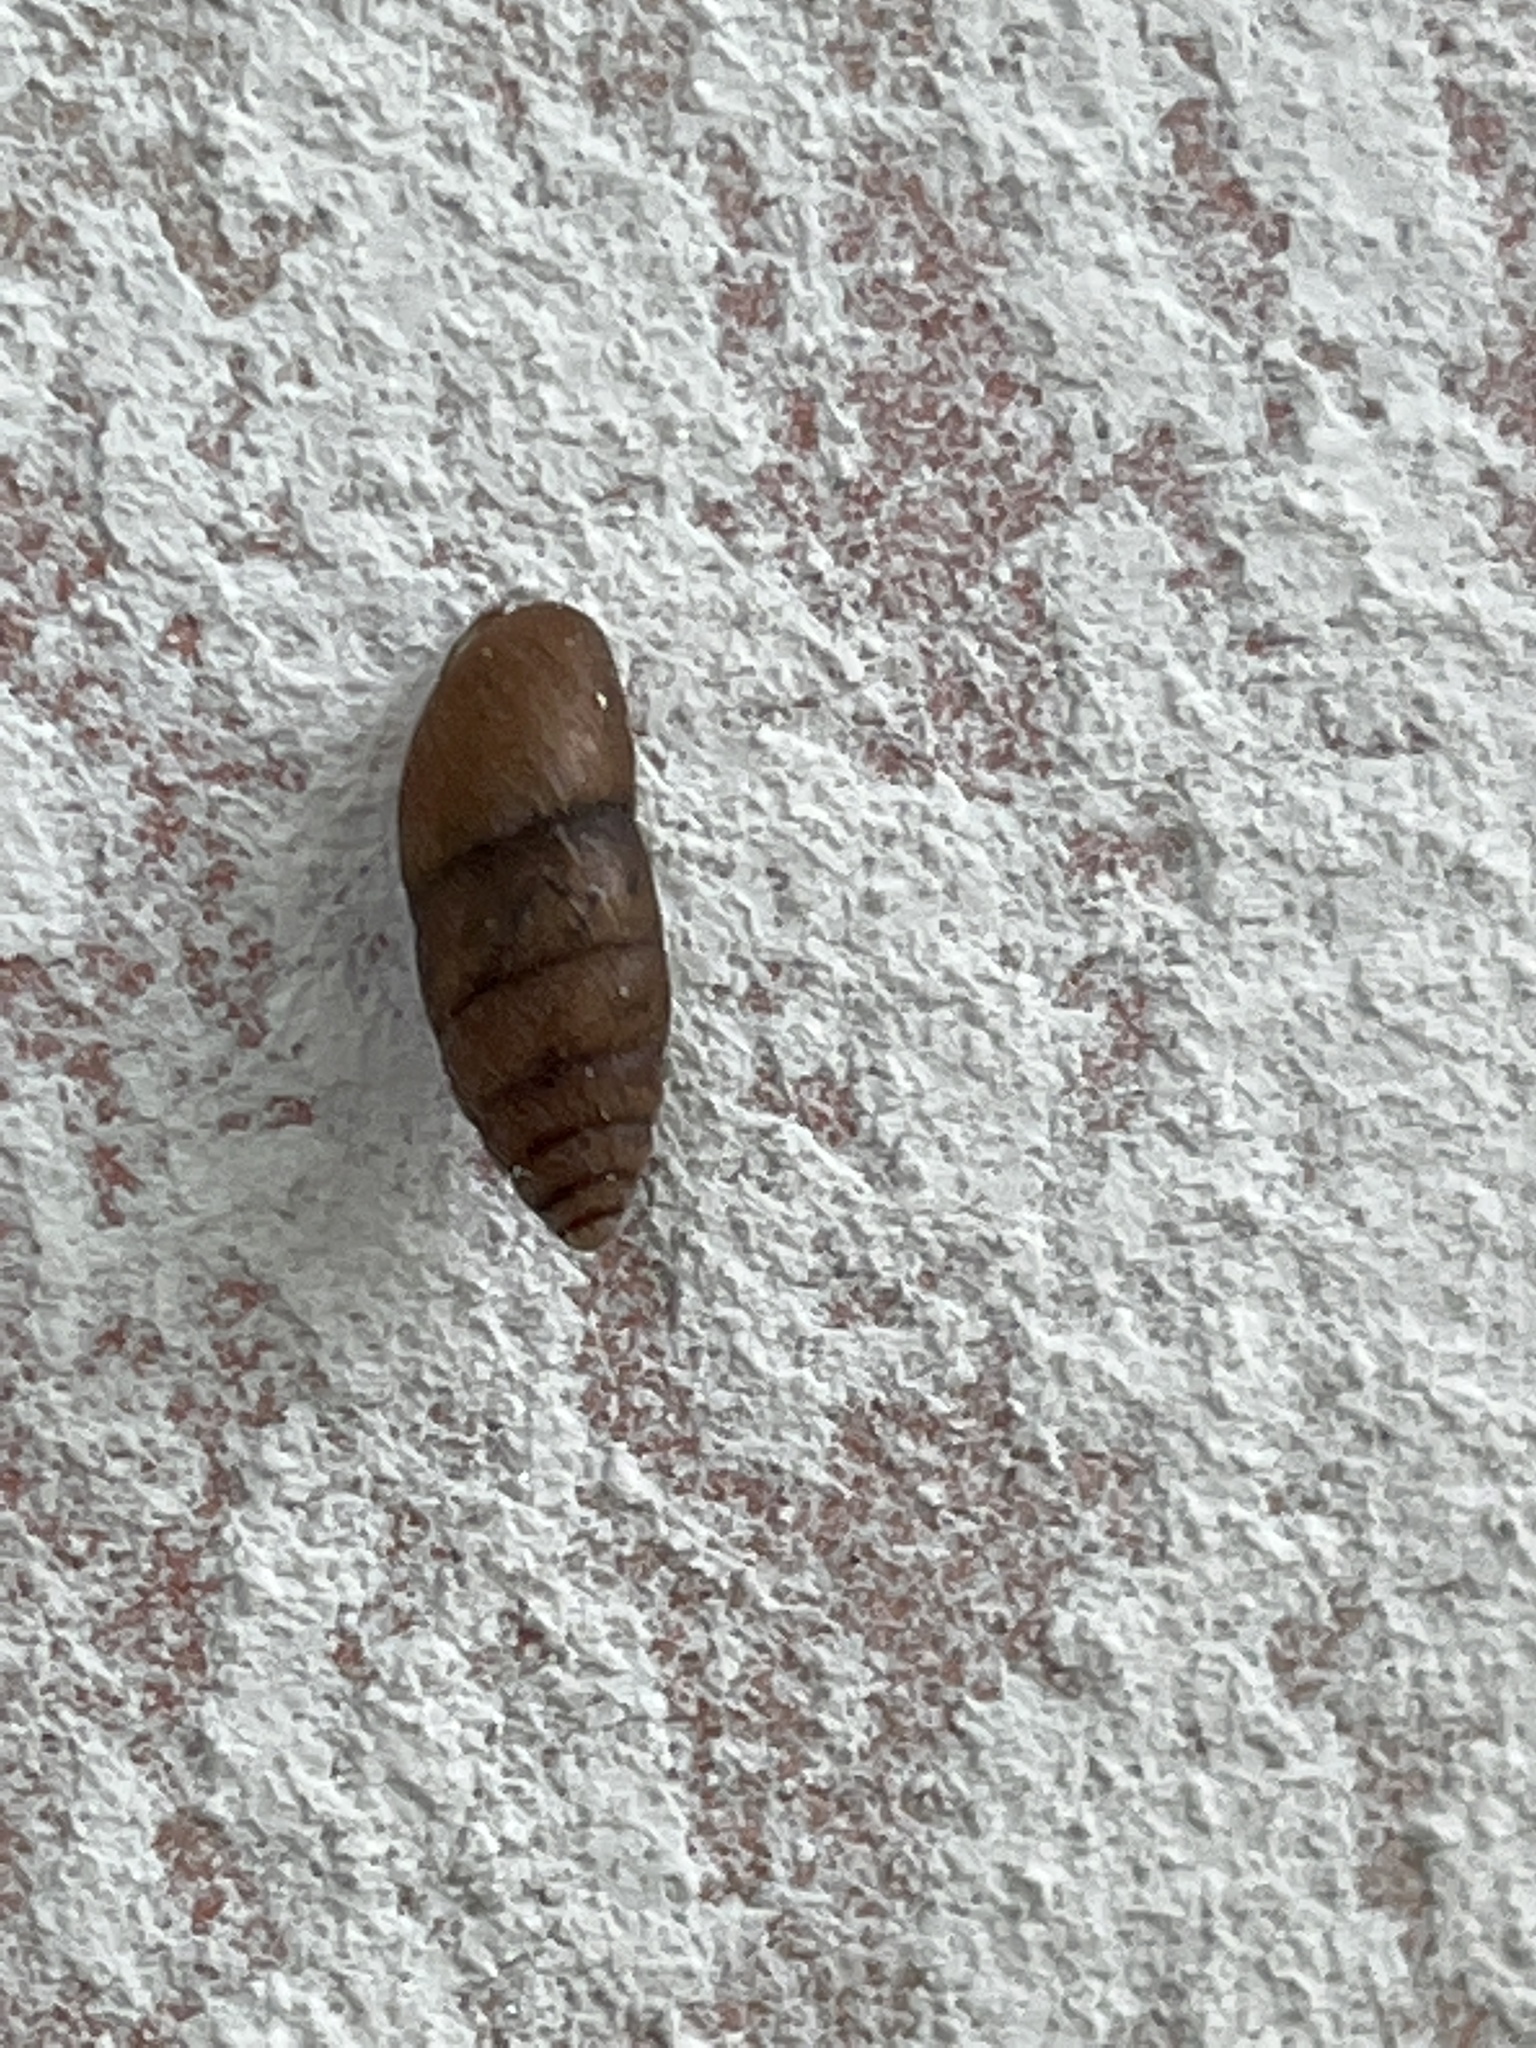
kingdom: Animalia
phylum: Mollusca
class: Gastropoda
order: Stylommatophora
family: Enidae
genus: Chondrula
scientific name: Chondrula tridens
